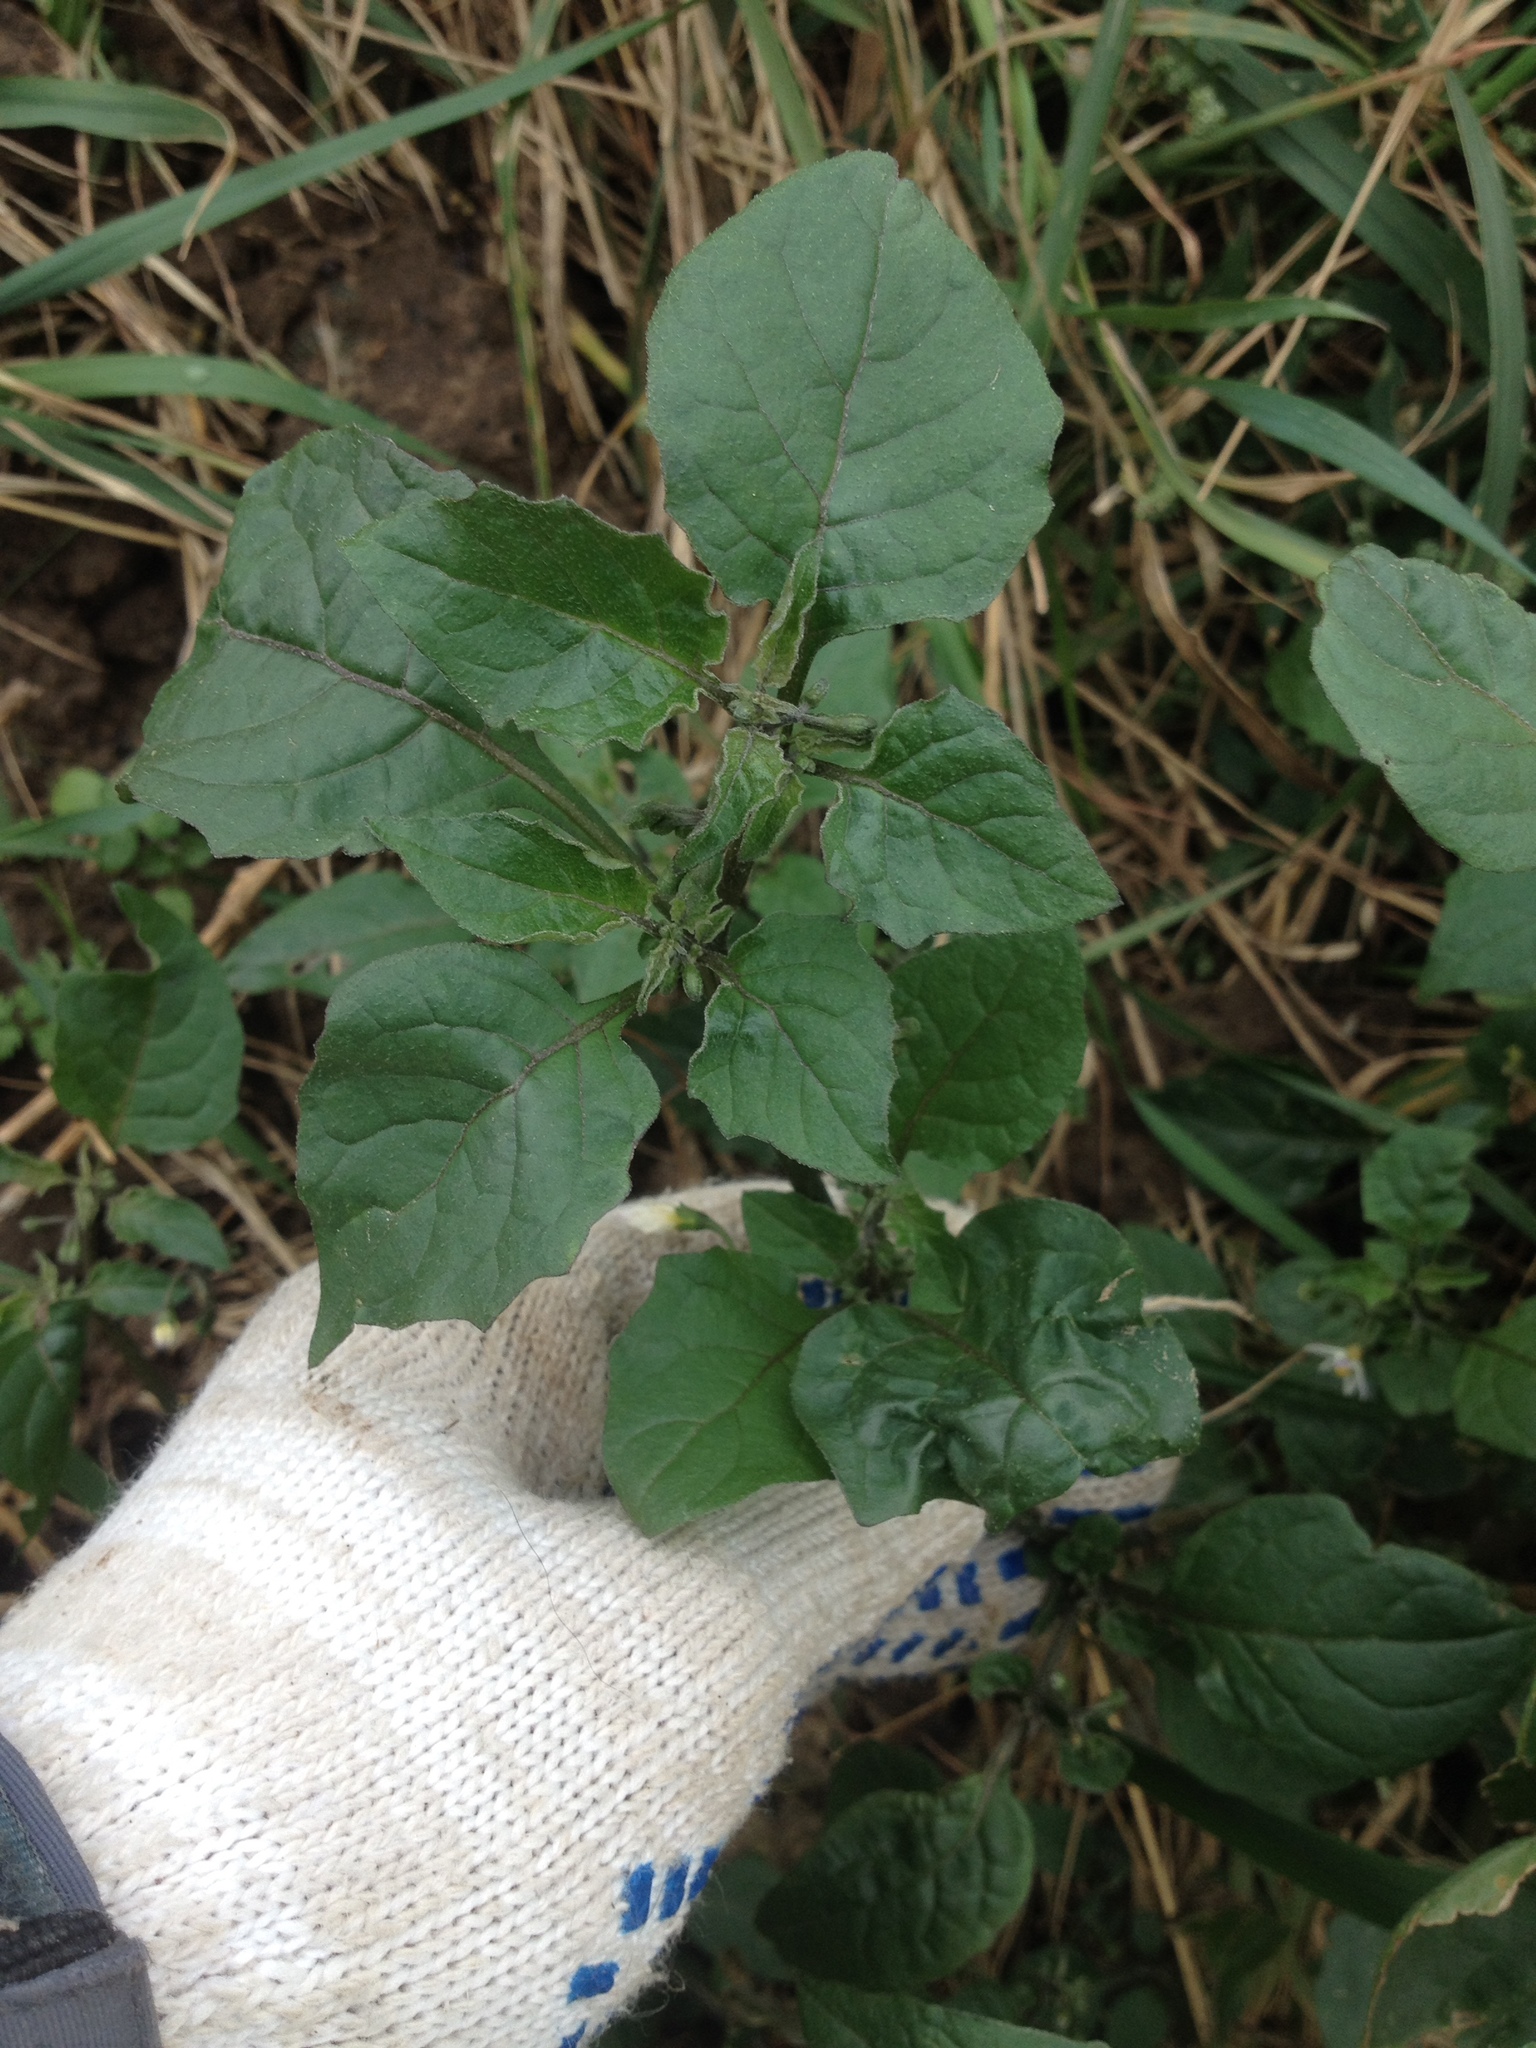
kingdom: Plantae
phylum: Tracheophyta
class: Magnoliopsida
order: Solanales
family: Solanaceae
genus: Solanum
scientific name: Solanum nigrum
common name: Black nightshade
